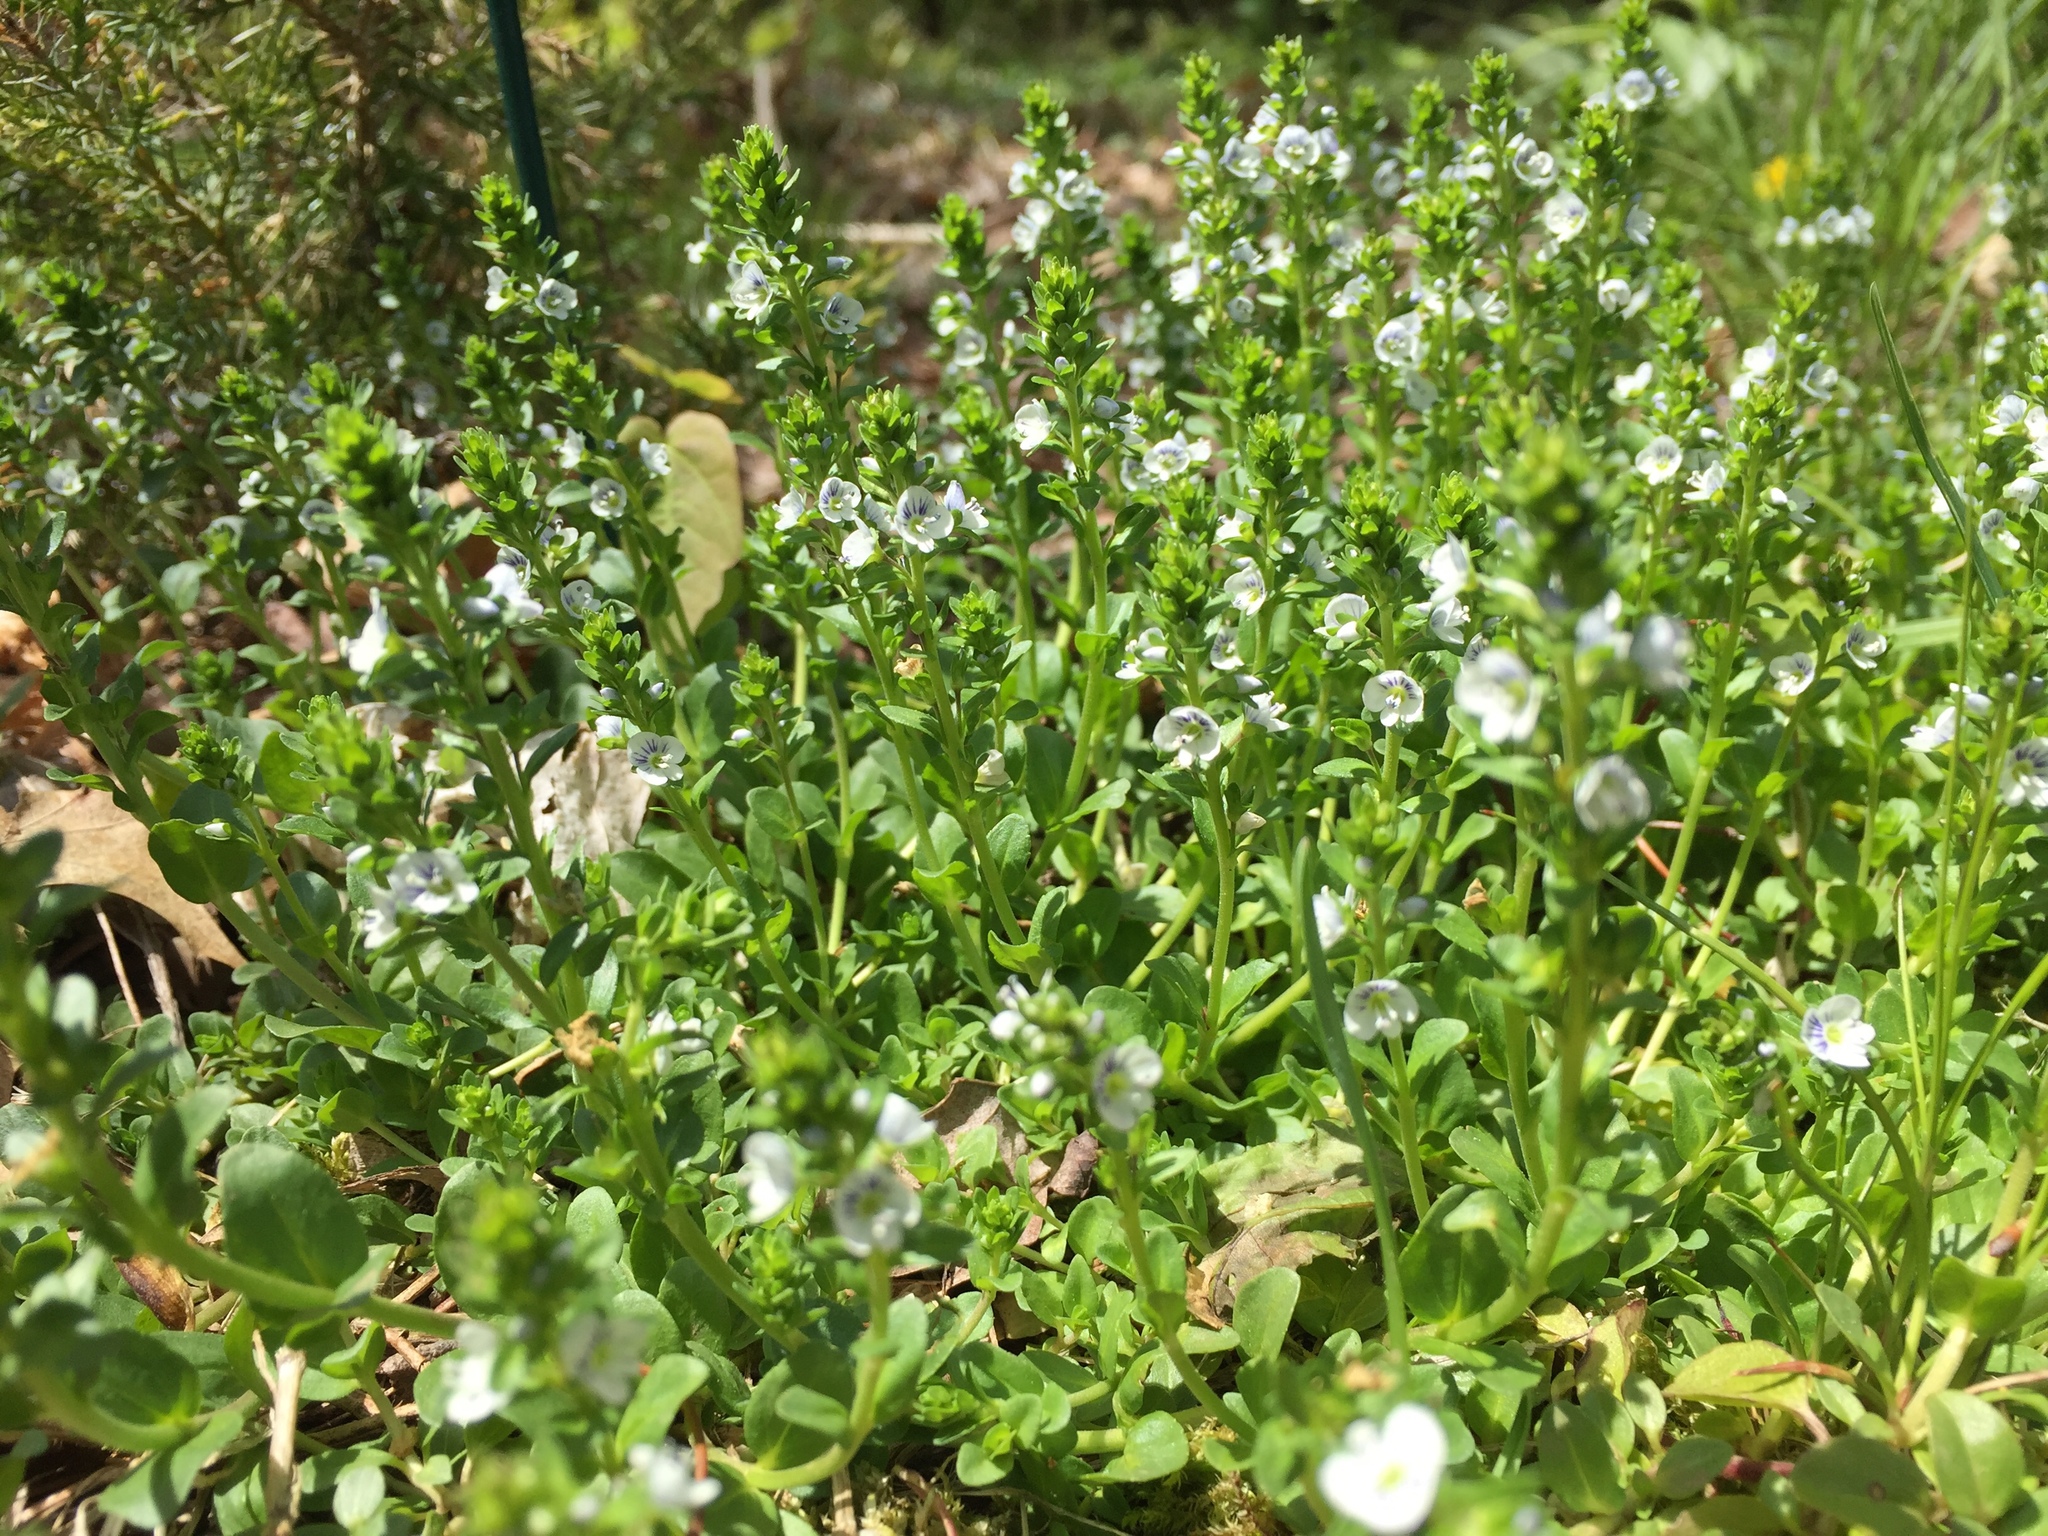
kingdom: Plantae
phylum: Tracheophyta
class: Magnoliopsida
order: Lamiales
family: Plantaginaceae
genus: Veronica
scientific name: Veronica serpyllifolia
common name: Thyme-leaved speedwell
